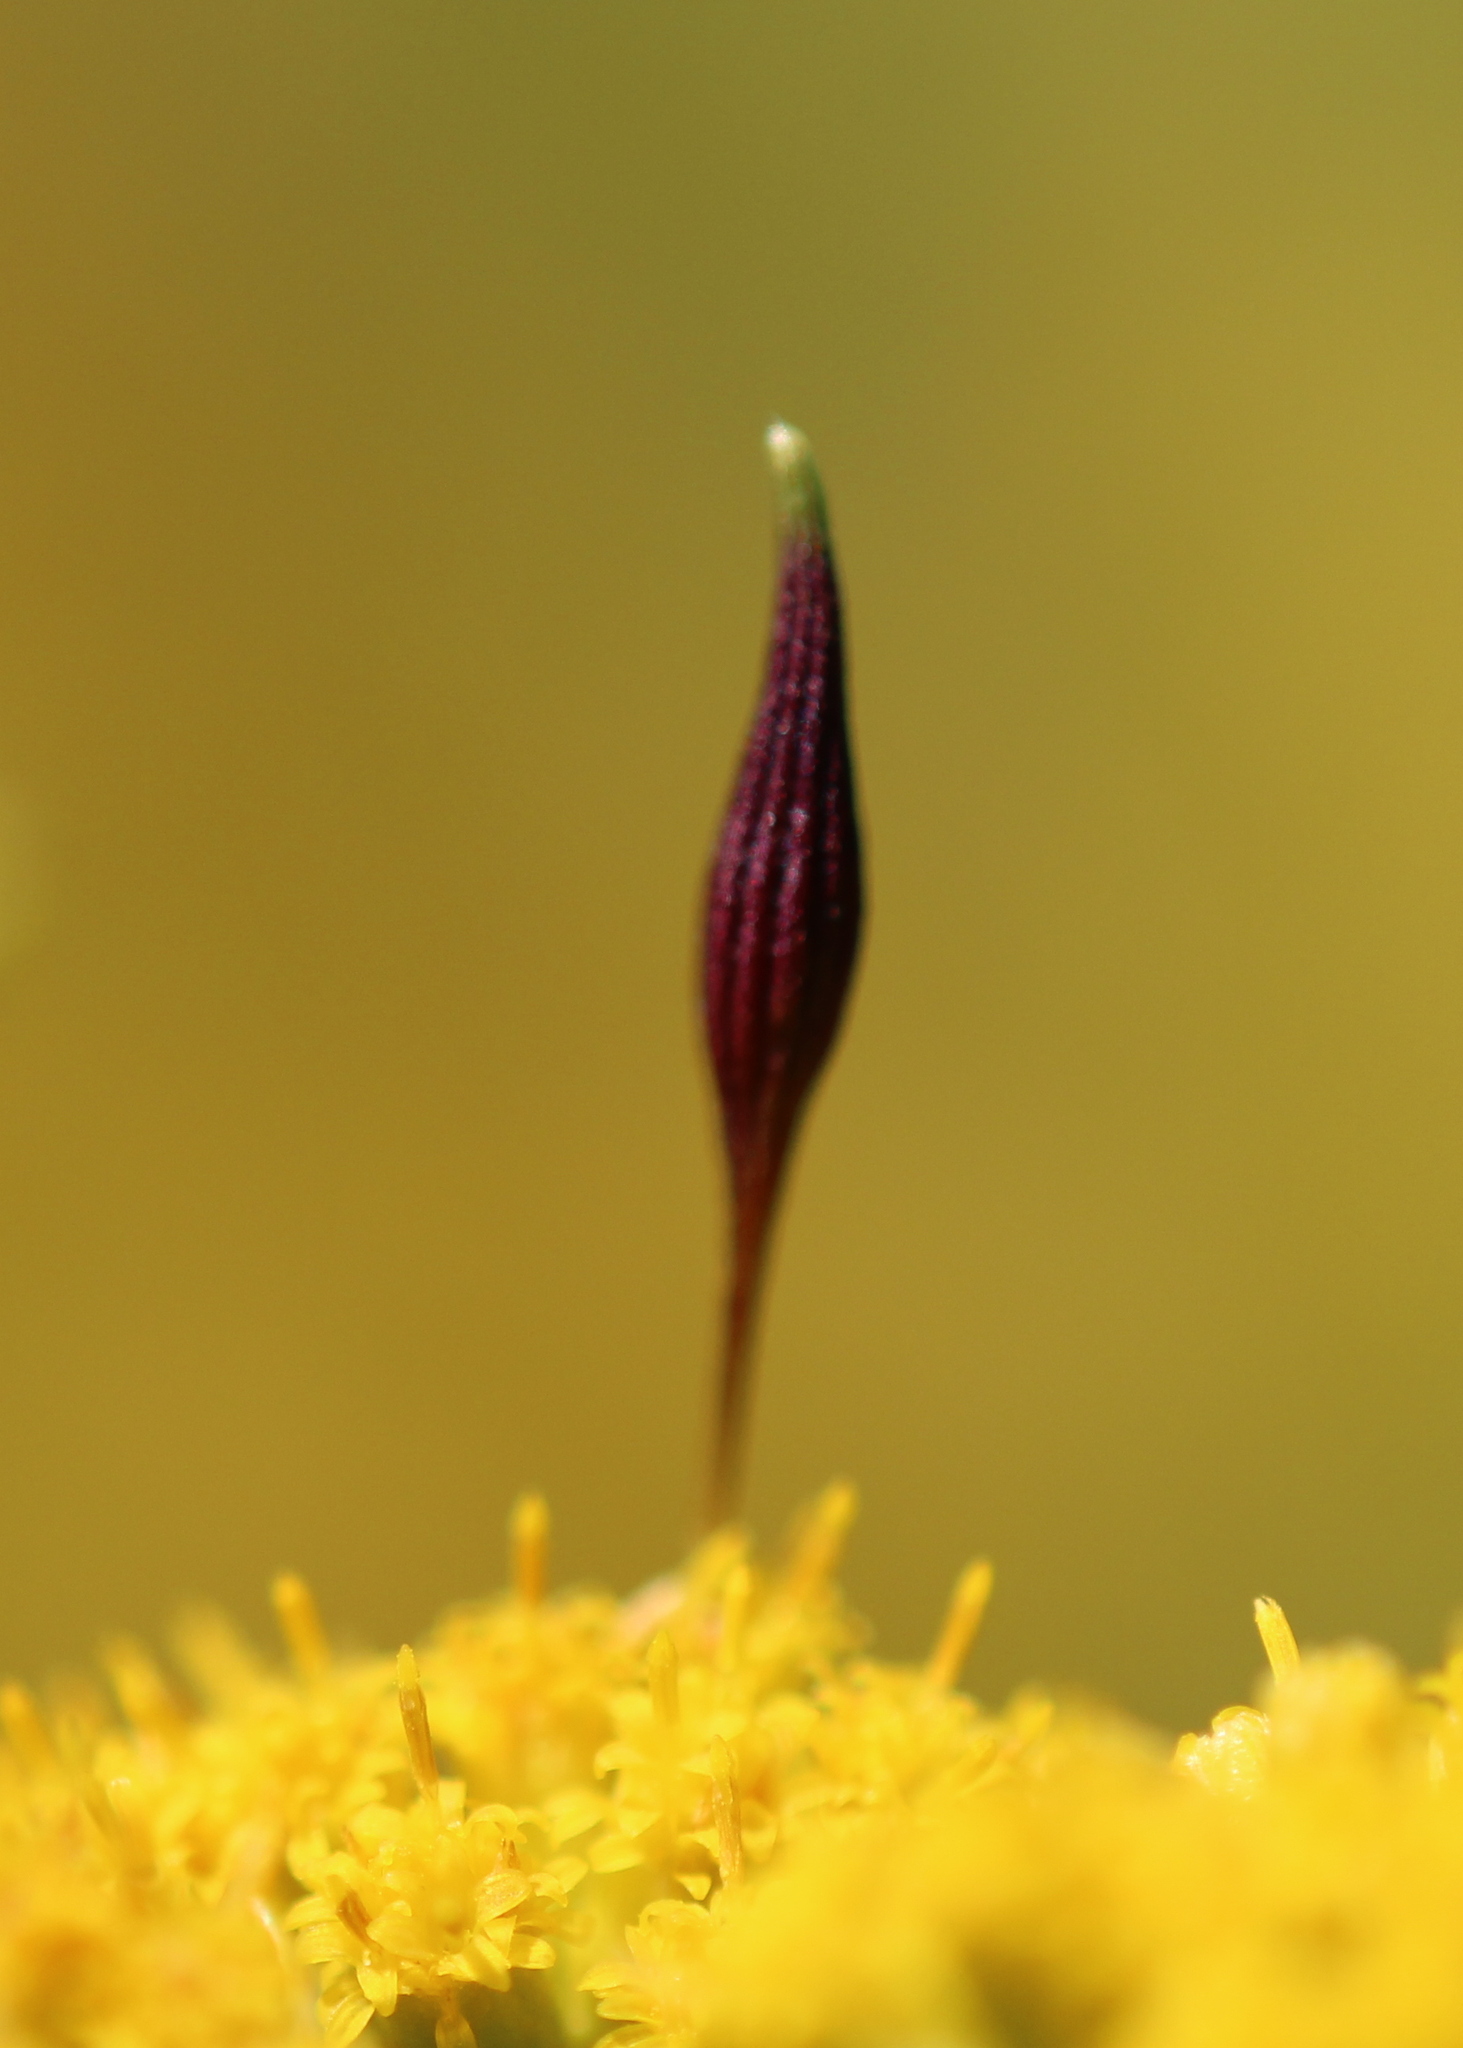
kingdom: Animalia
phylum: Arthropoda
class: Insecta
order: Diptera
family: Cecidomyiidae
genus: Rhopalomyia
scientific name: Rhopalomyia pedicellata
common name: Goldentop pedicellate gall midge
